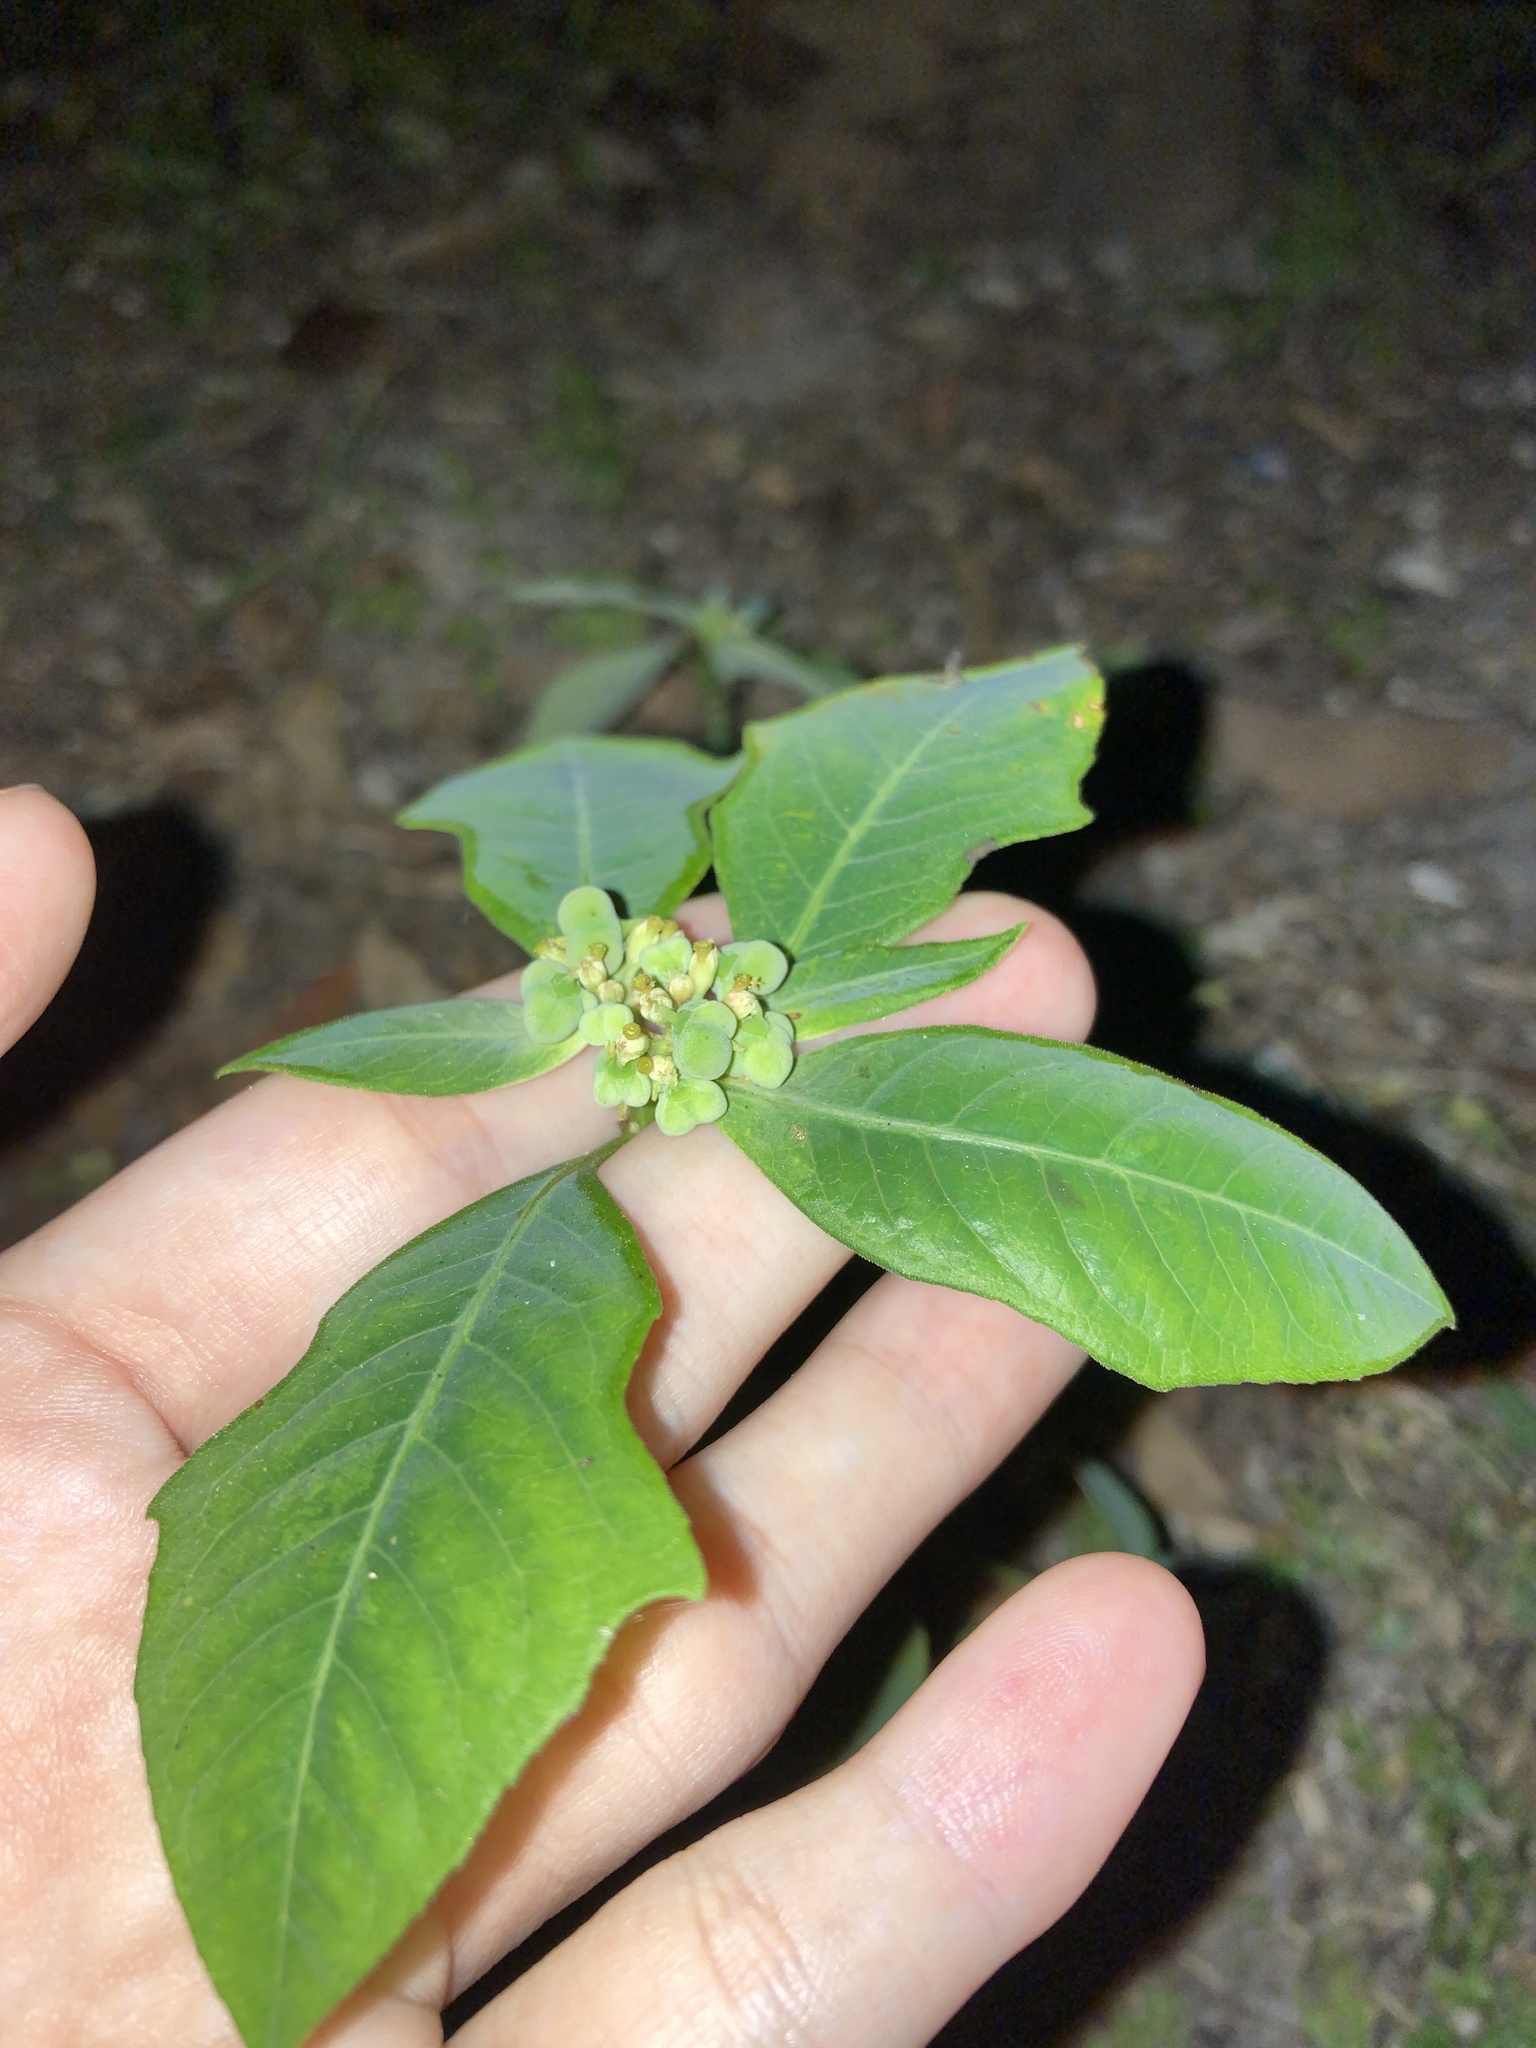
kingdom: Plantae
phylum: Tracheophyta
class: Magnoliopsida
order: Malpighiales
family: Euphorbiaceae
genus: Euphorbia
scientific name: Euphorbia heterophylla
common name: Mexican fireplant
